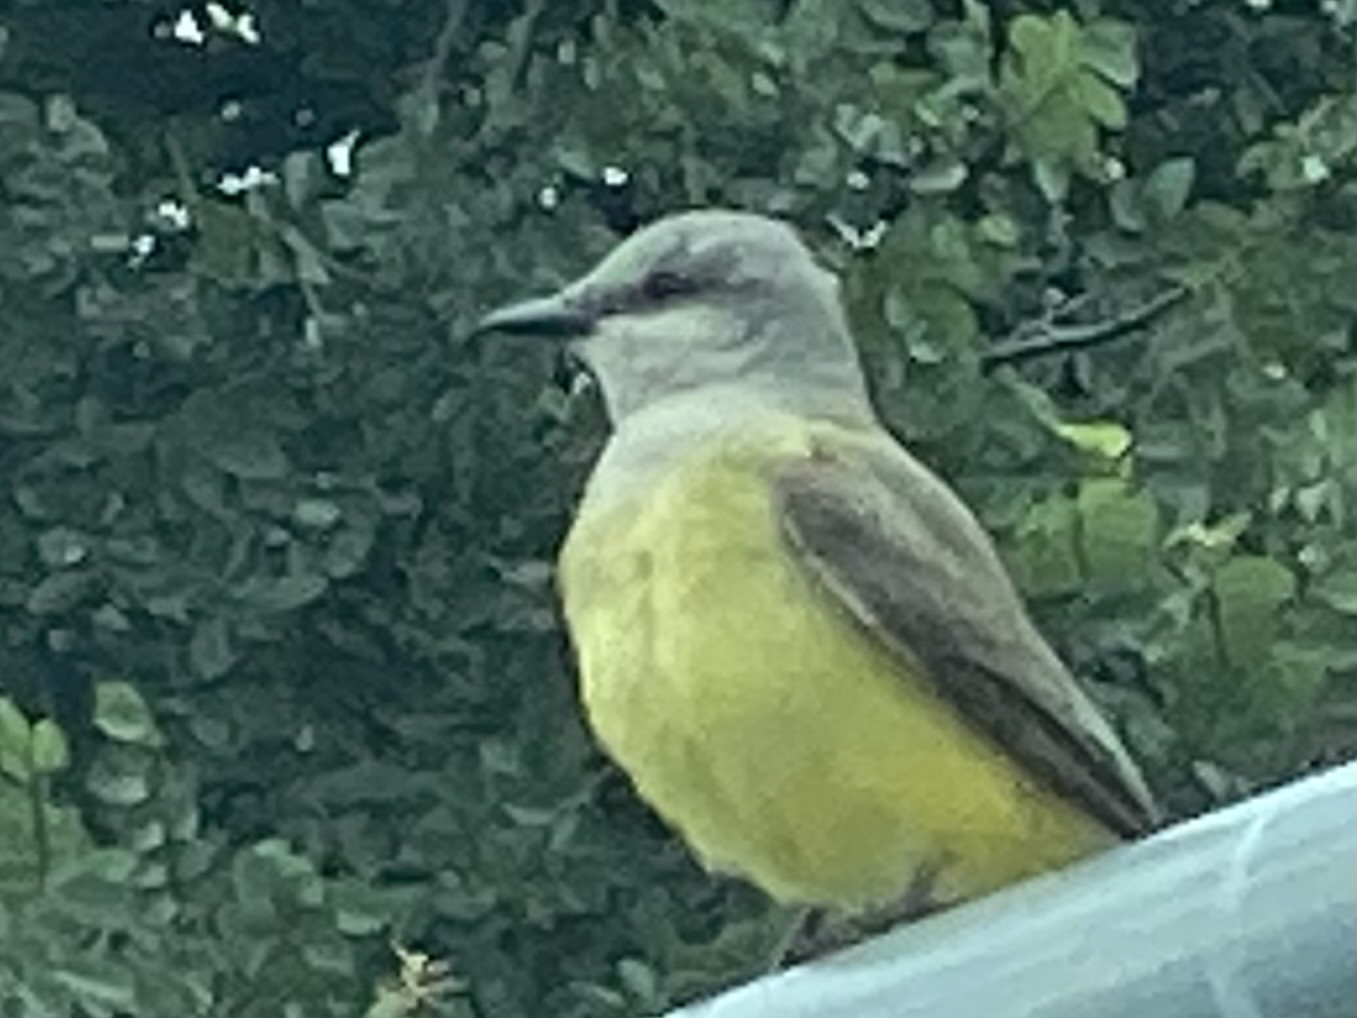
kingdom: Animalia
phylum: Chordata
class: Aves
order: Passeriformes
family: Tyrannidae
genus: Tyrannus
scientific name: Tyrannus verticalis
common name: Western kingbird
